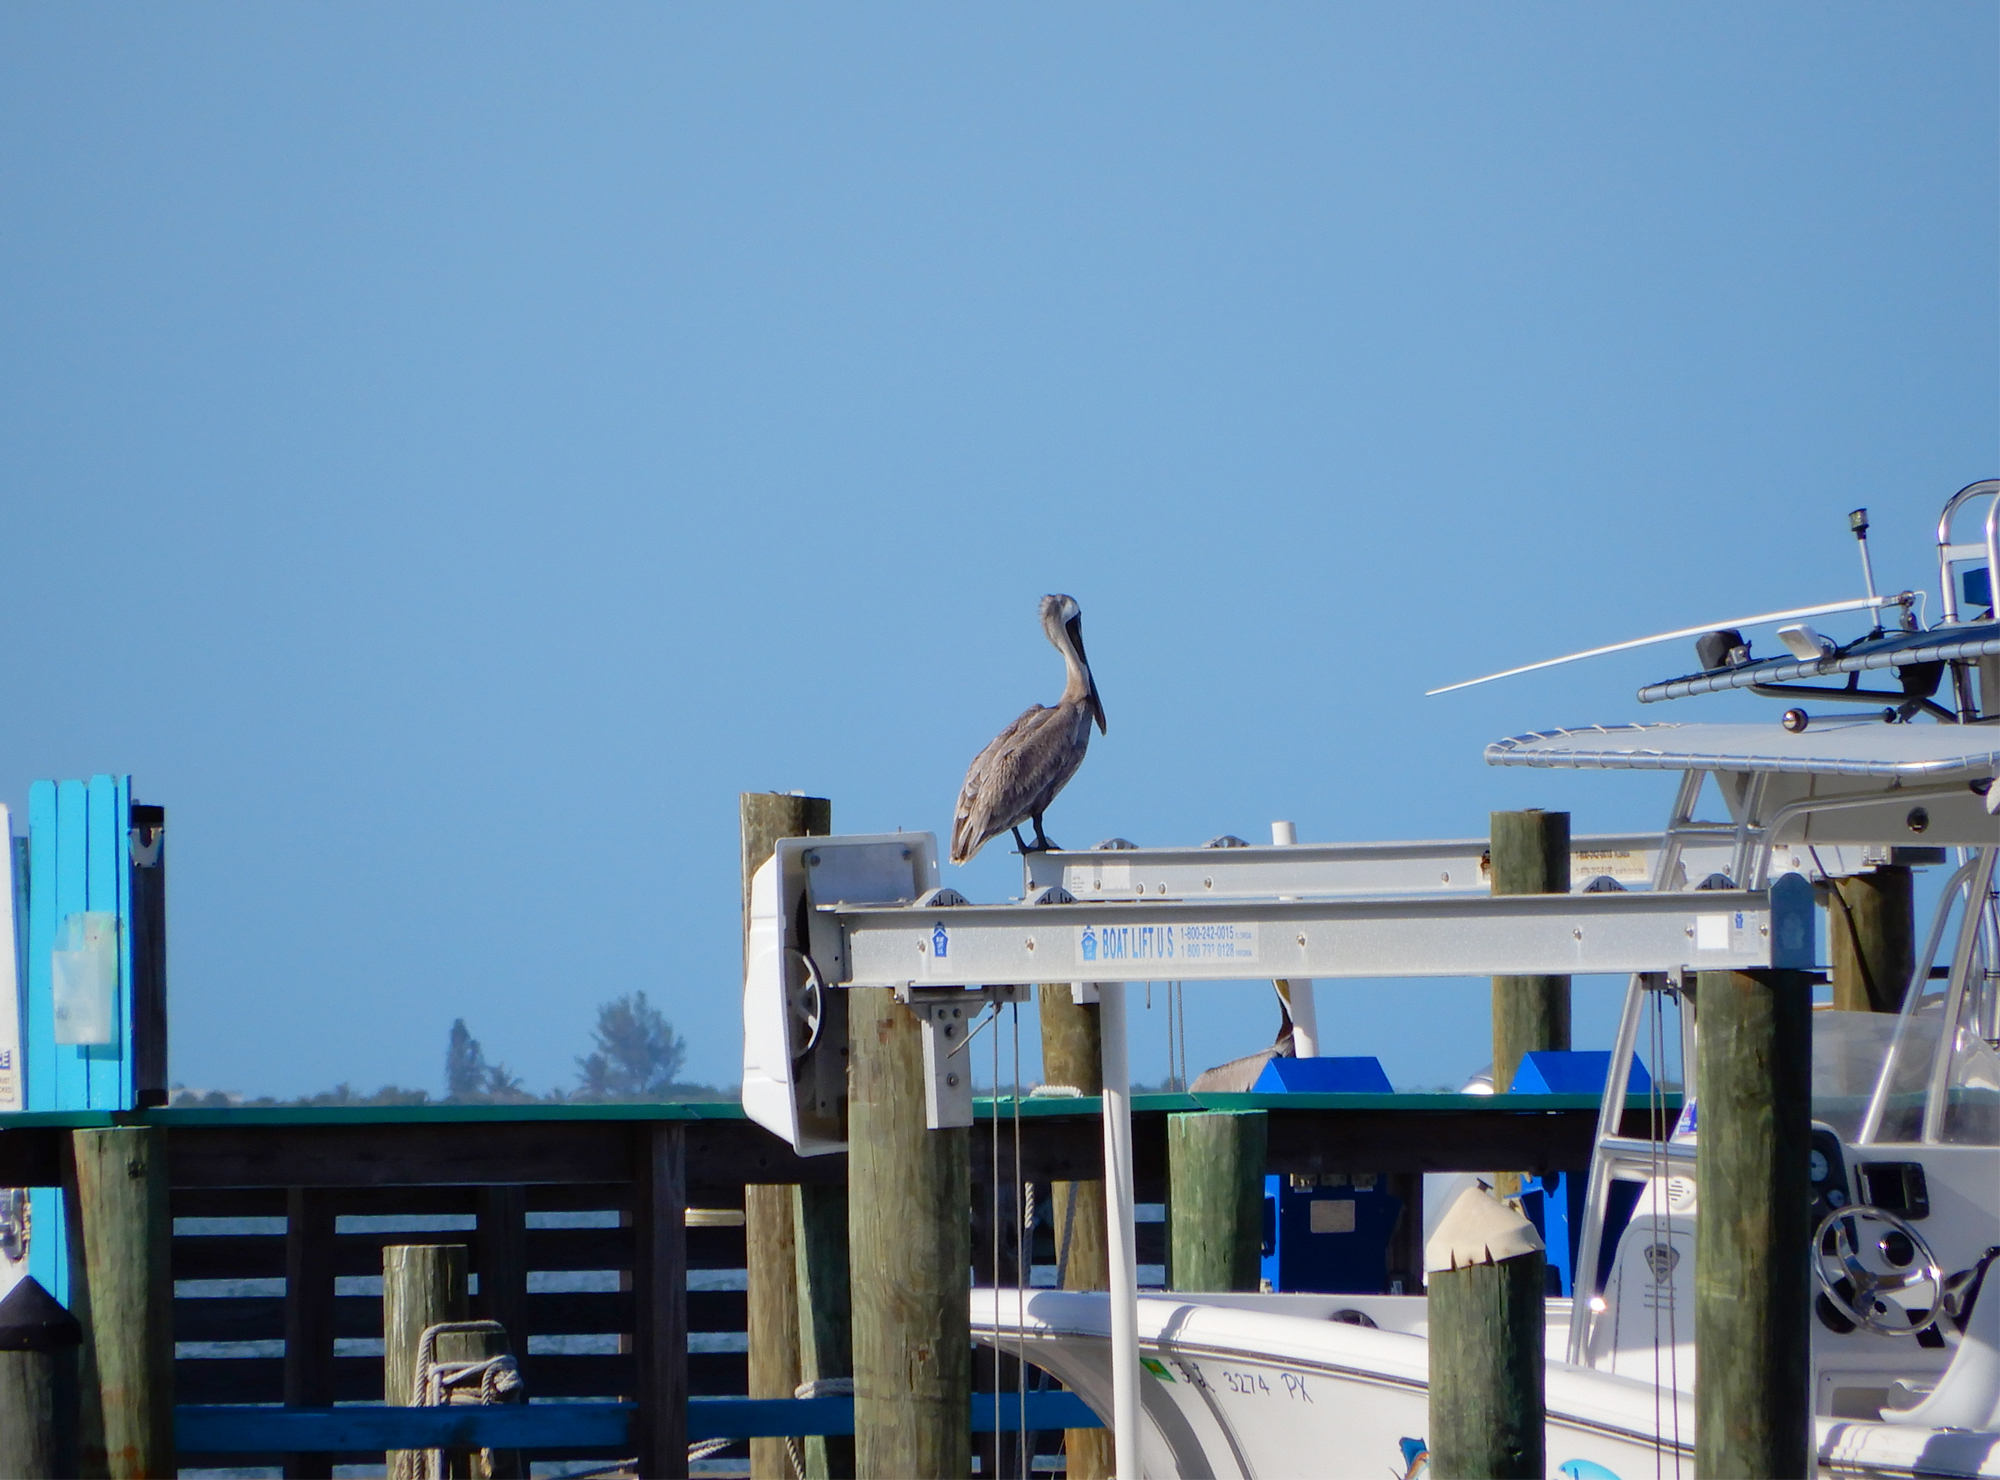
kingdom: Animalia
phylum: Chordata
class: Aves
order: Pelecaniformes
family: Pelecanidae
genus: Pelecanus
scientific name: Pelecanus occidentalis
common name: Brown pelican
